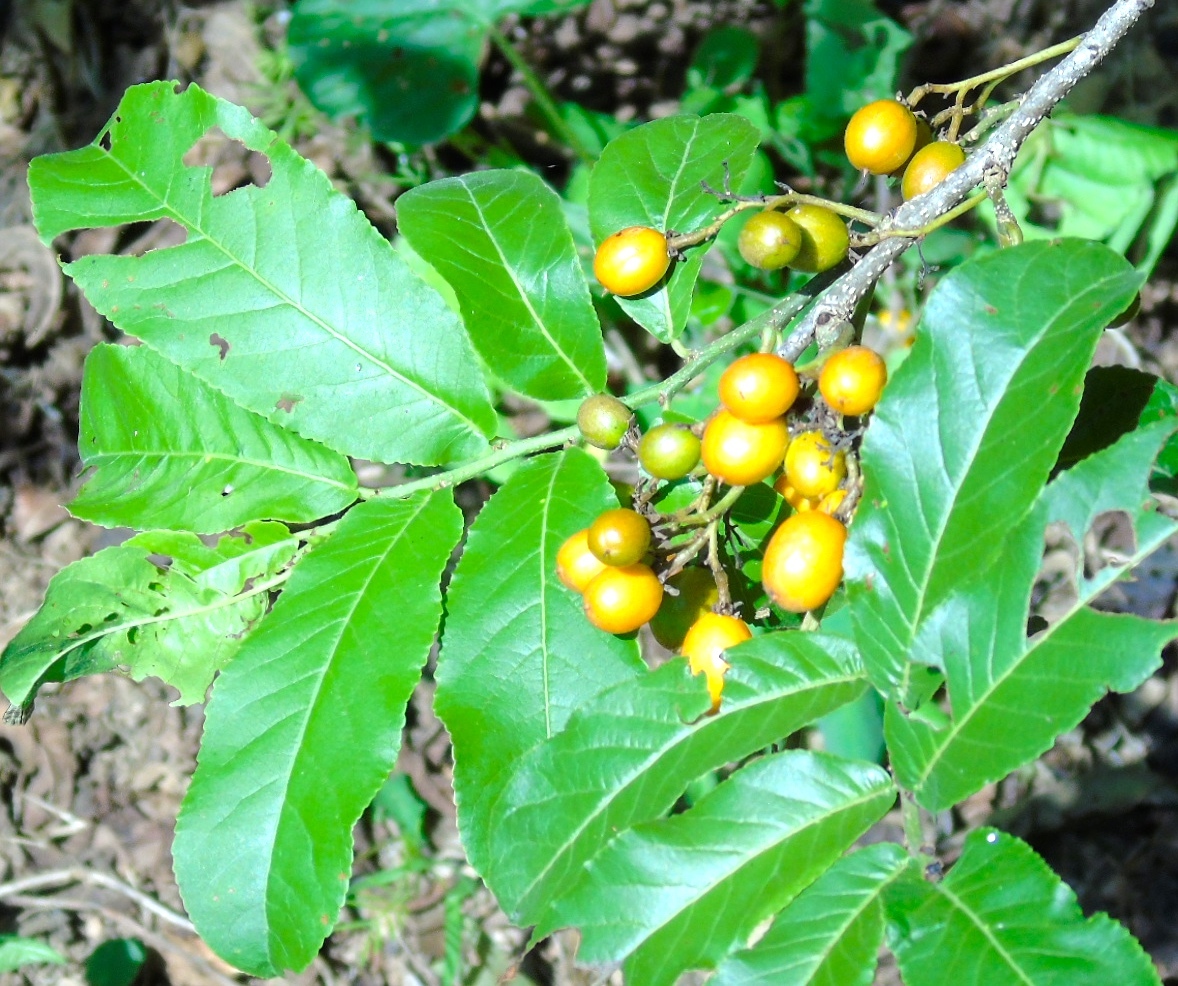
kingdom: Plantae
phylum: Tracheophyta
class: Magnoliopsida
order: Malpighiales
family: Salicaceae
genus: Casearia
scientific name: Casearia corymbosa
